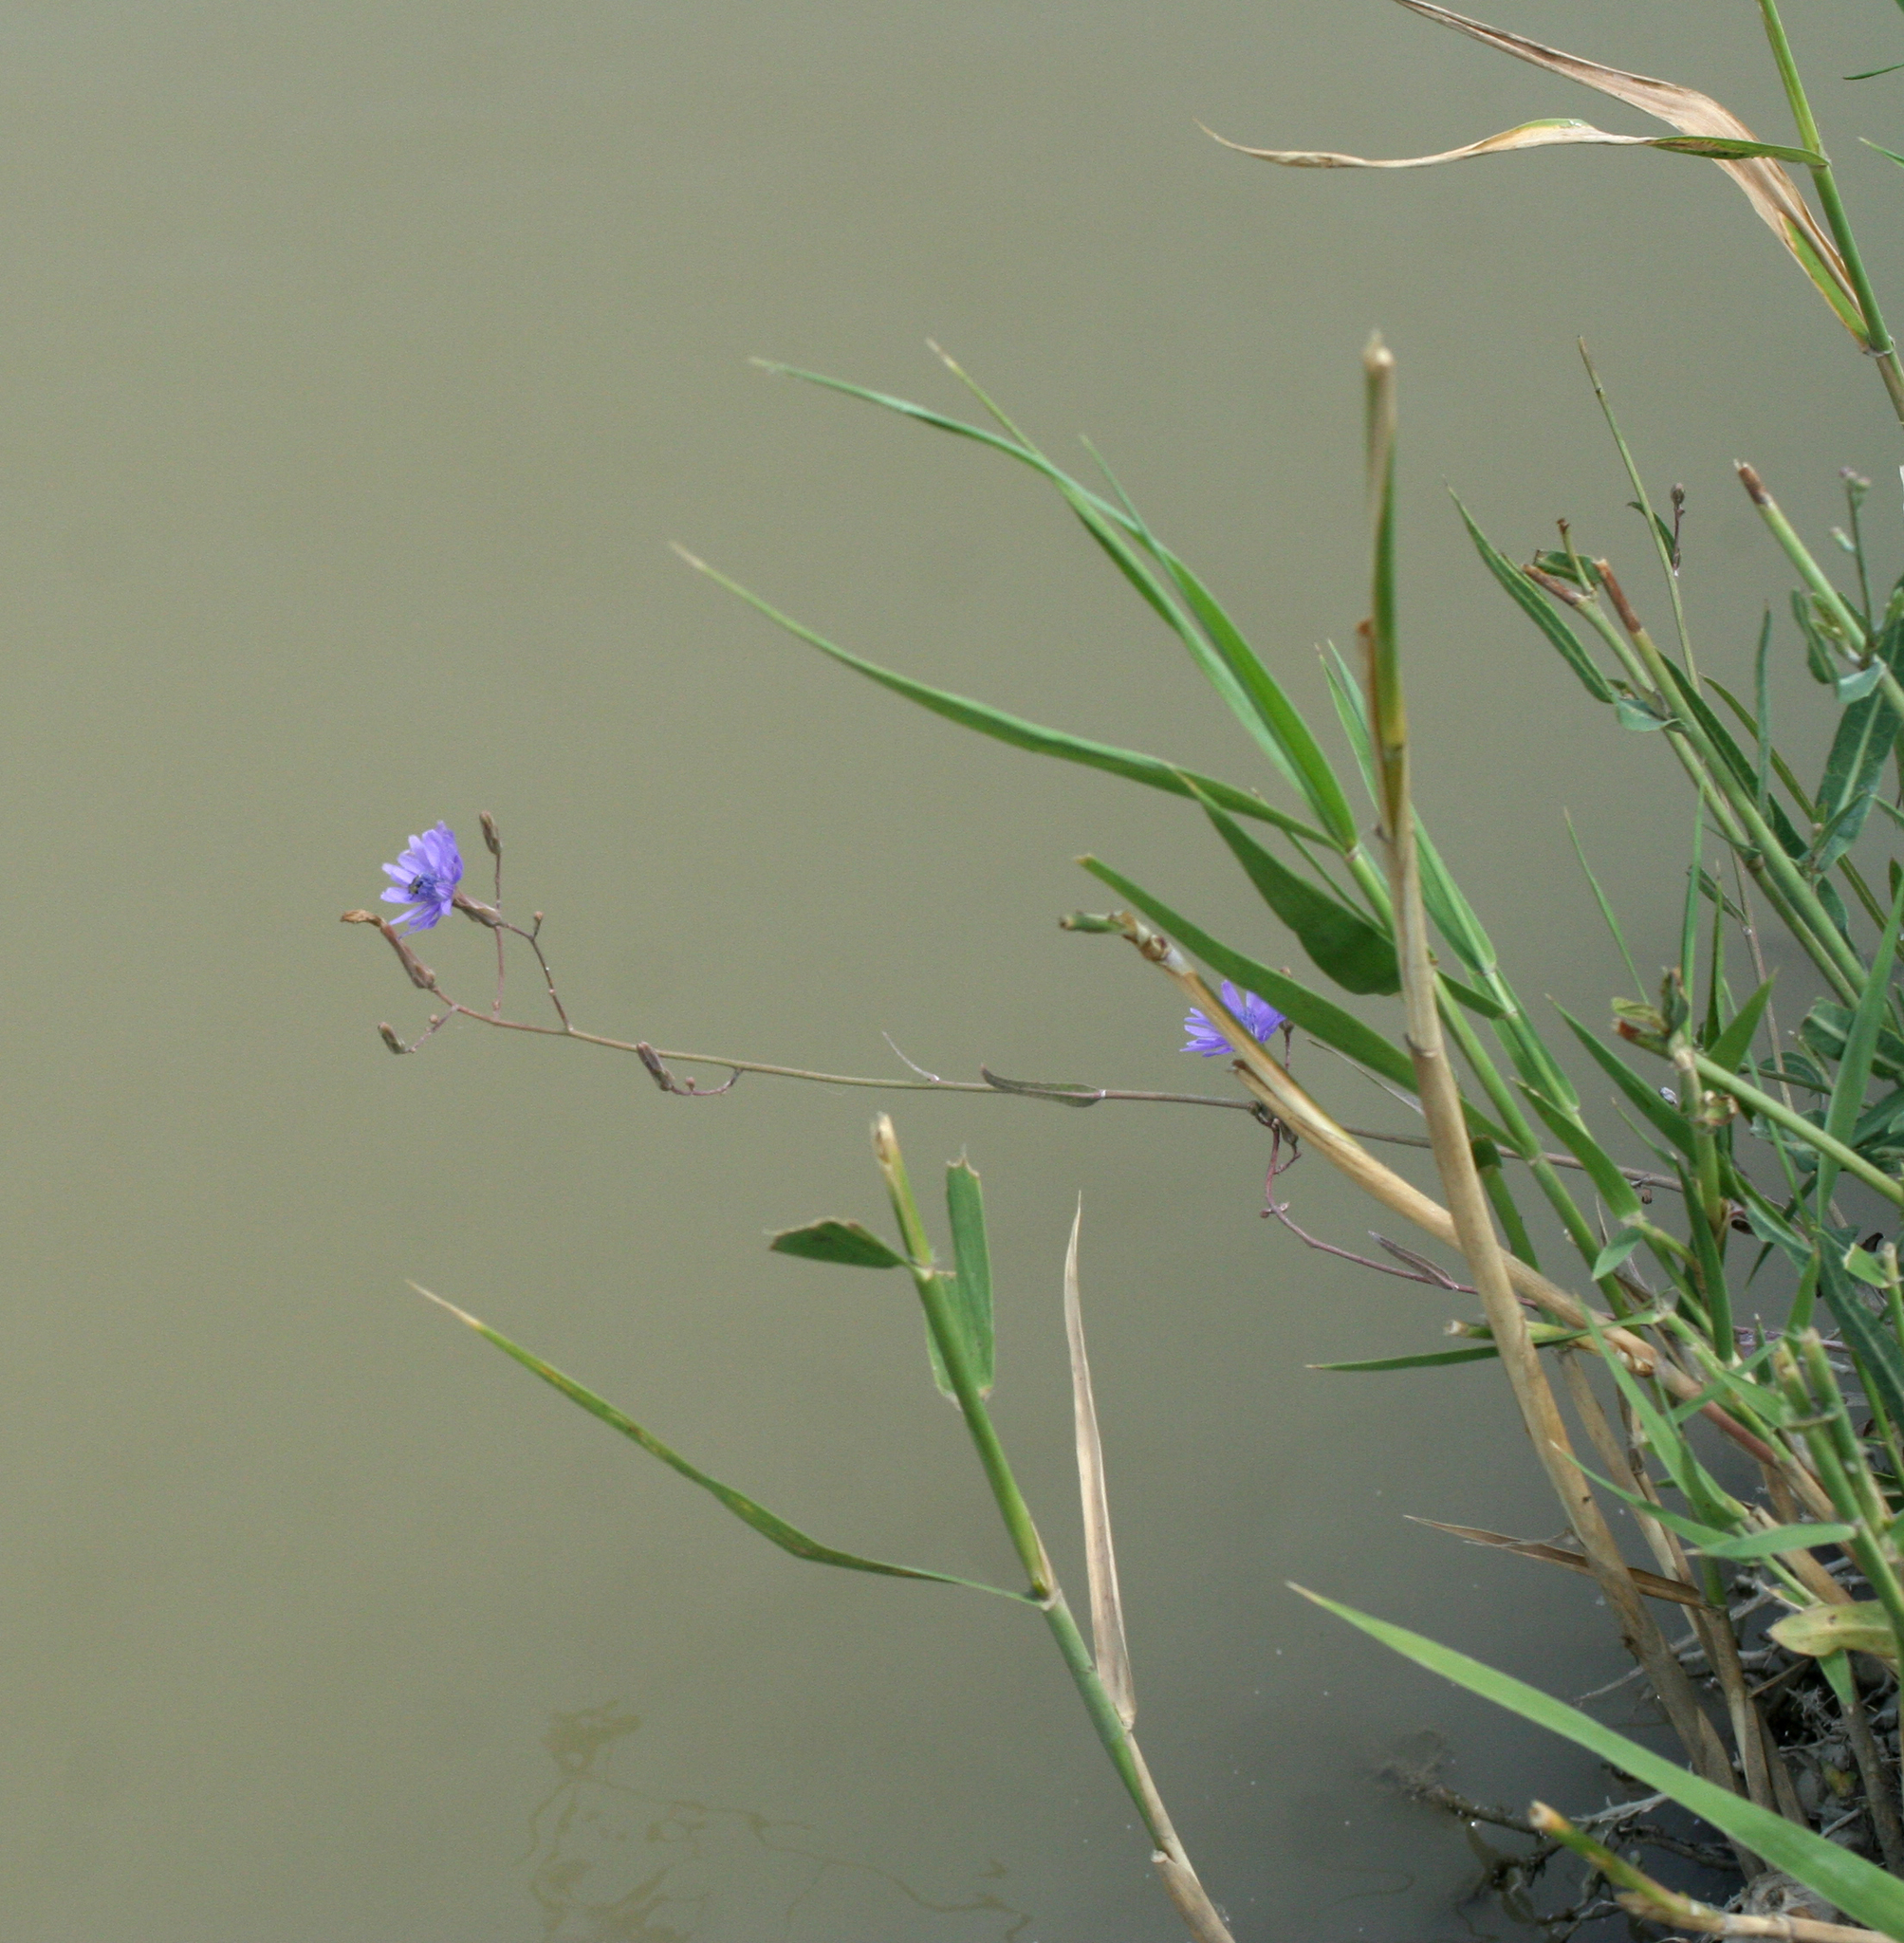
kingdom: Plantae
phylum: Tracheophyta
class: Magnoliopsida
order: Asterales
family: Asteraceae
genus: Lactuca
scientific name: Lactuca tatarica
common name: Blue lettuce
